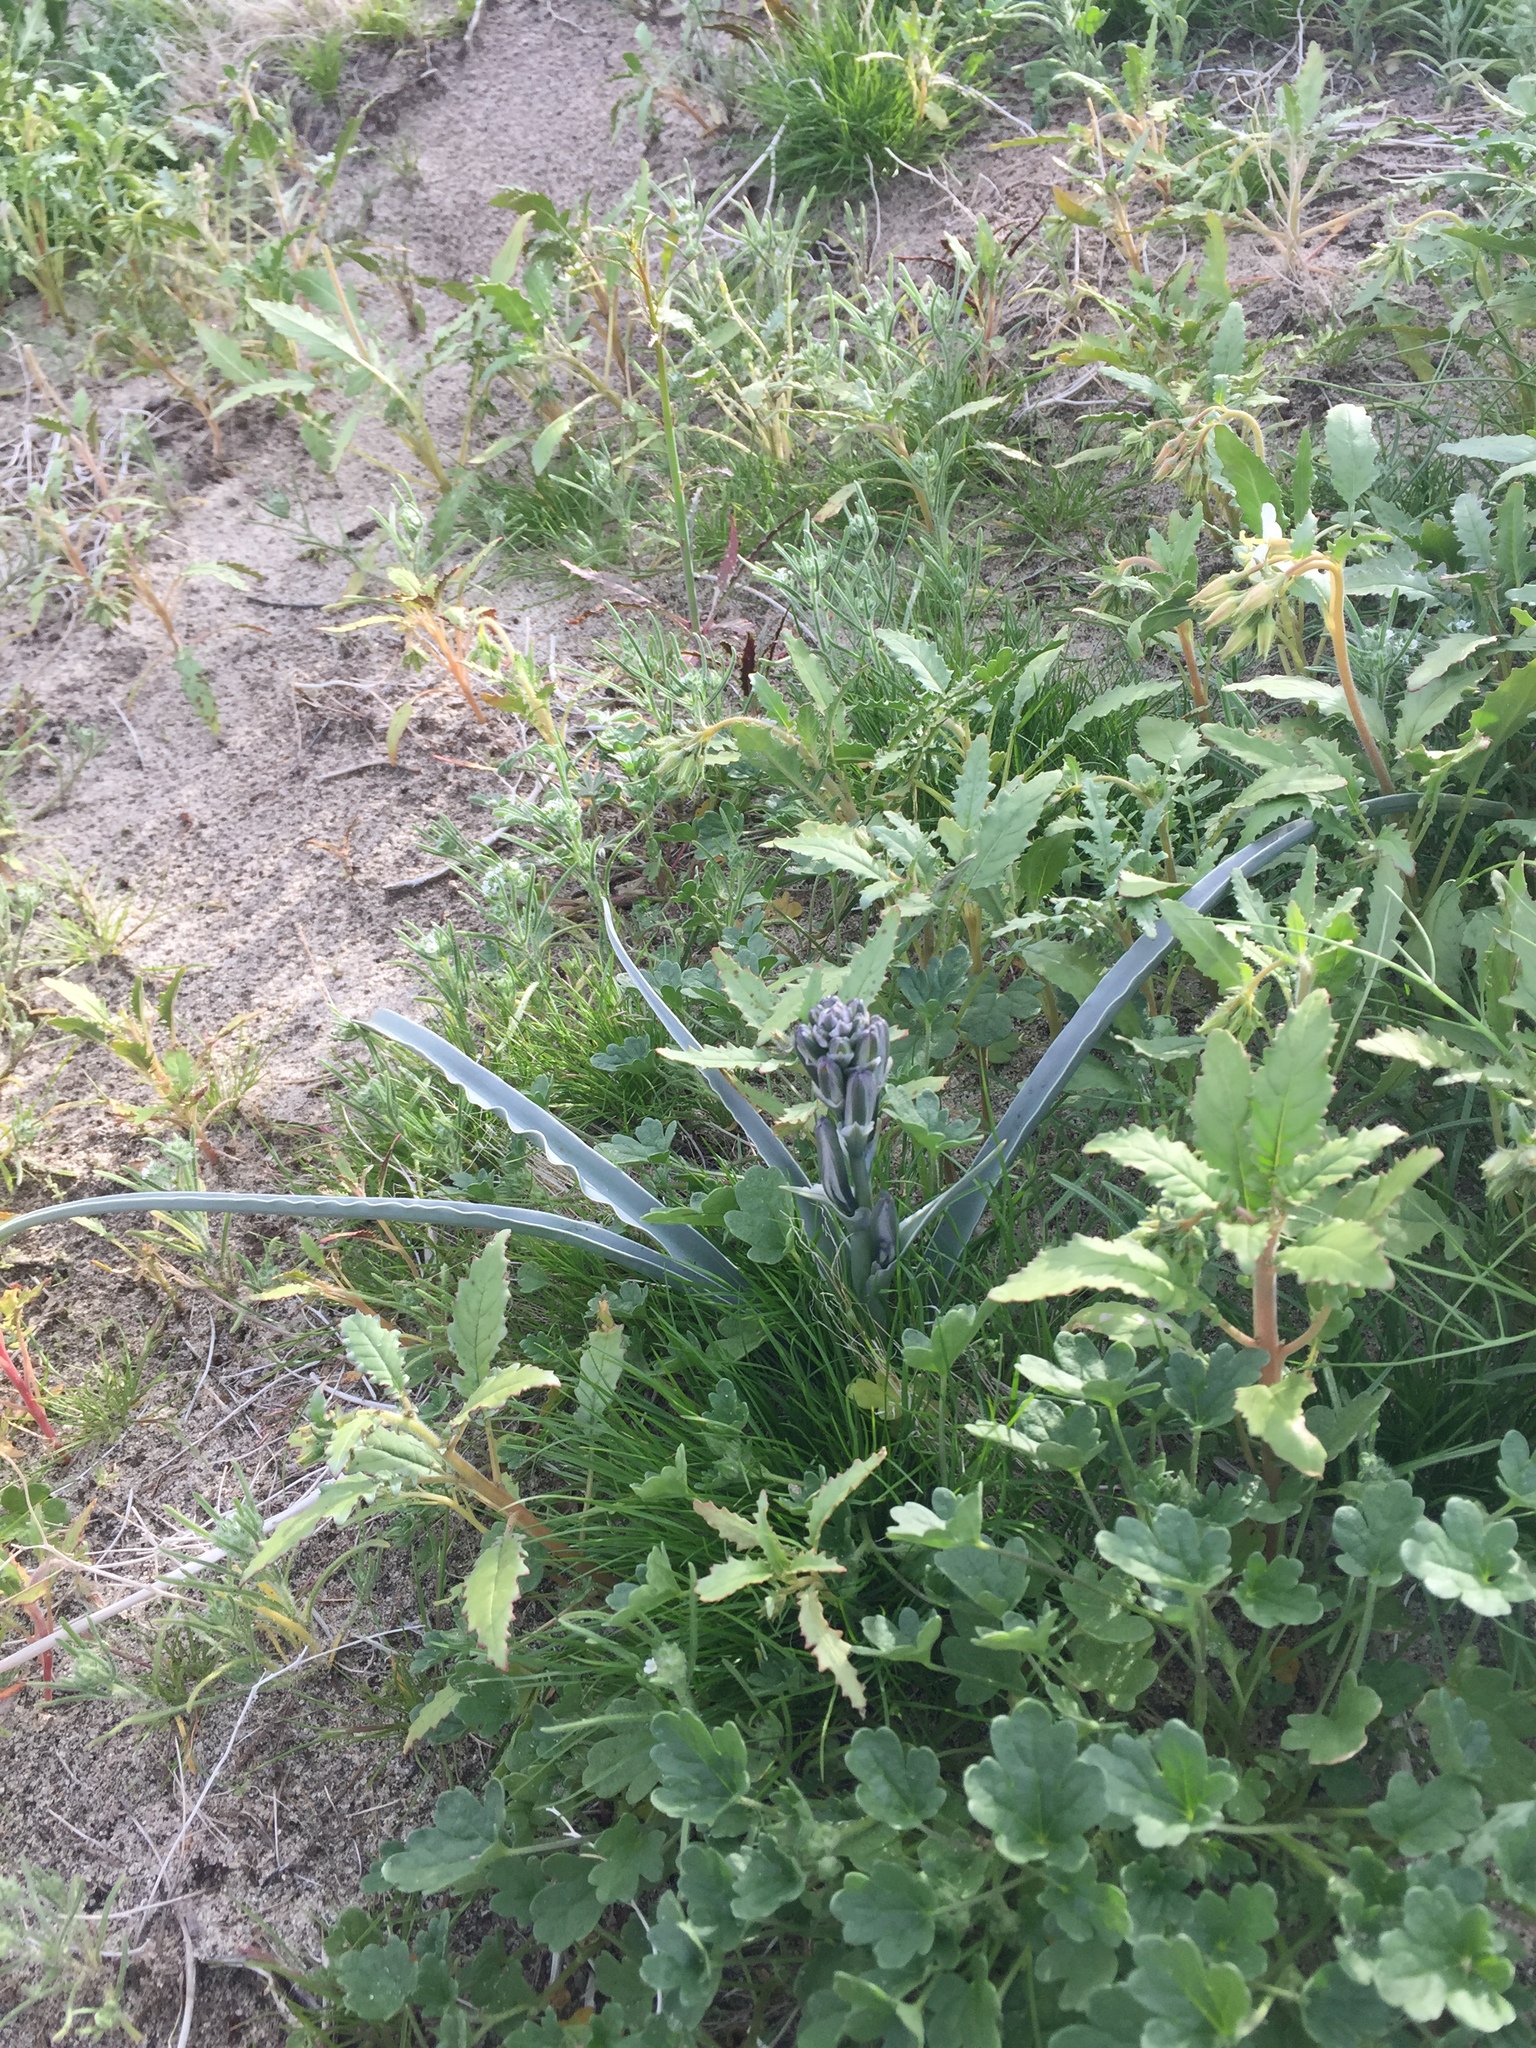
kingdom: Plantae
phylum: Tracheophyta
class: Liliopsida
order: Asparagales
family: Asparagaceae
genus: Hesperocallis
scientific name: Hesperocallis undulata
